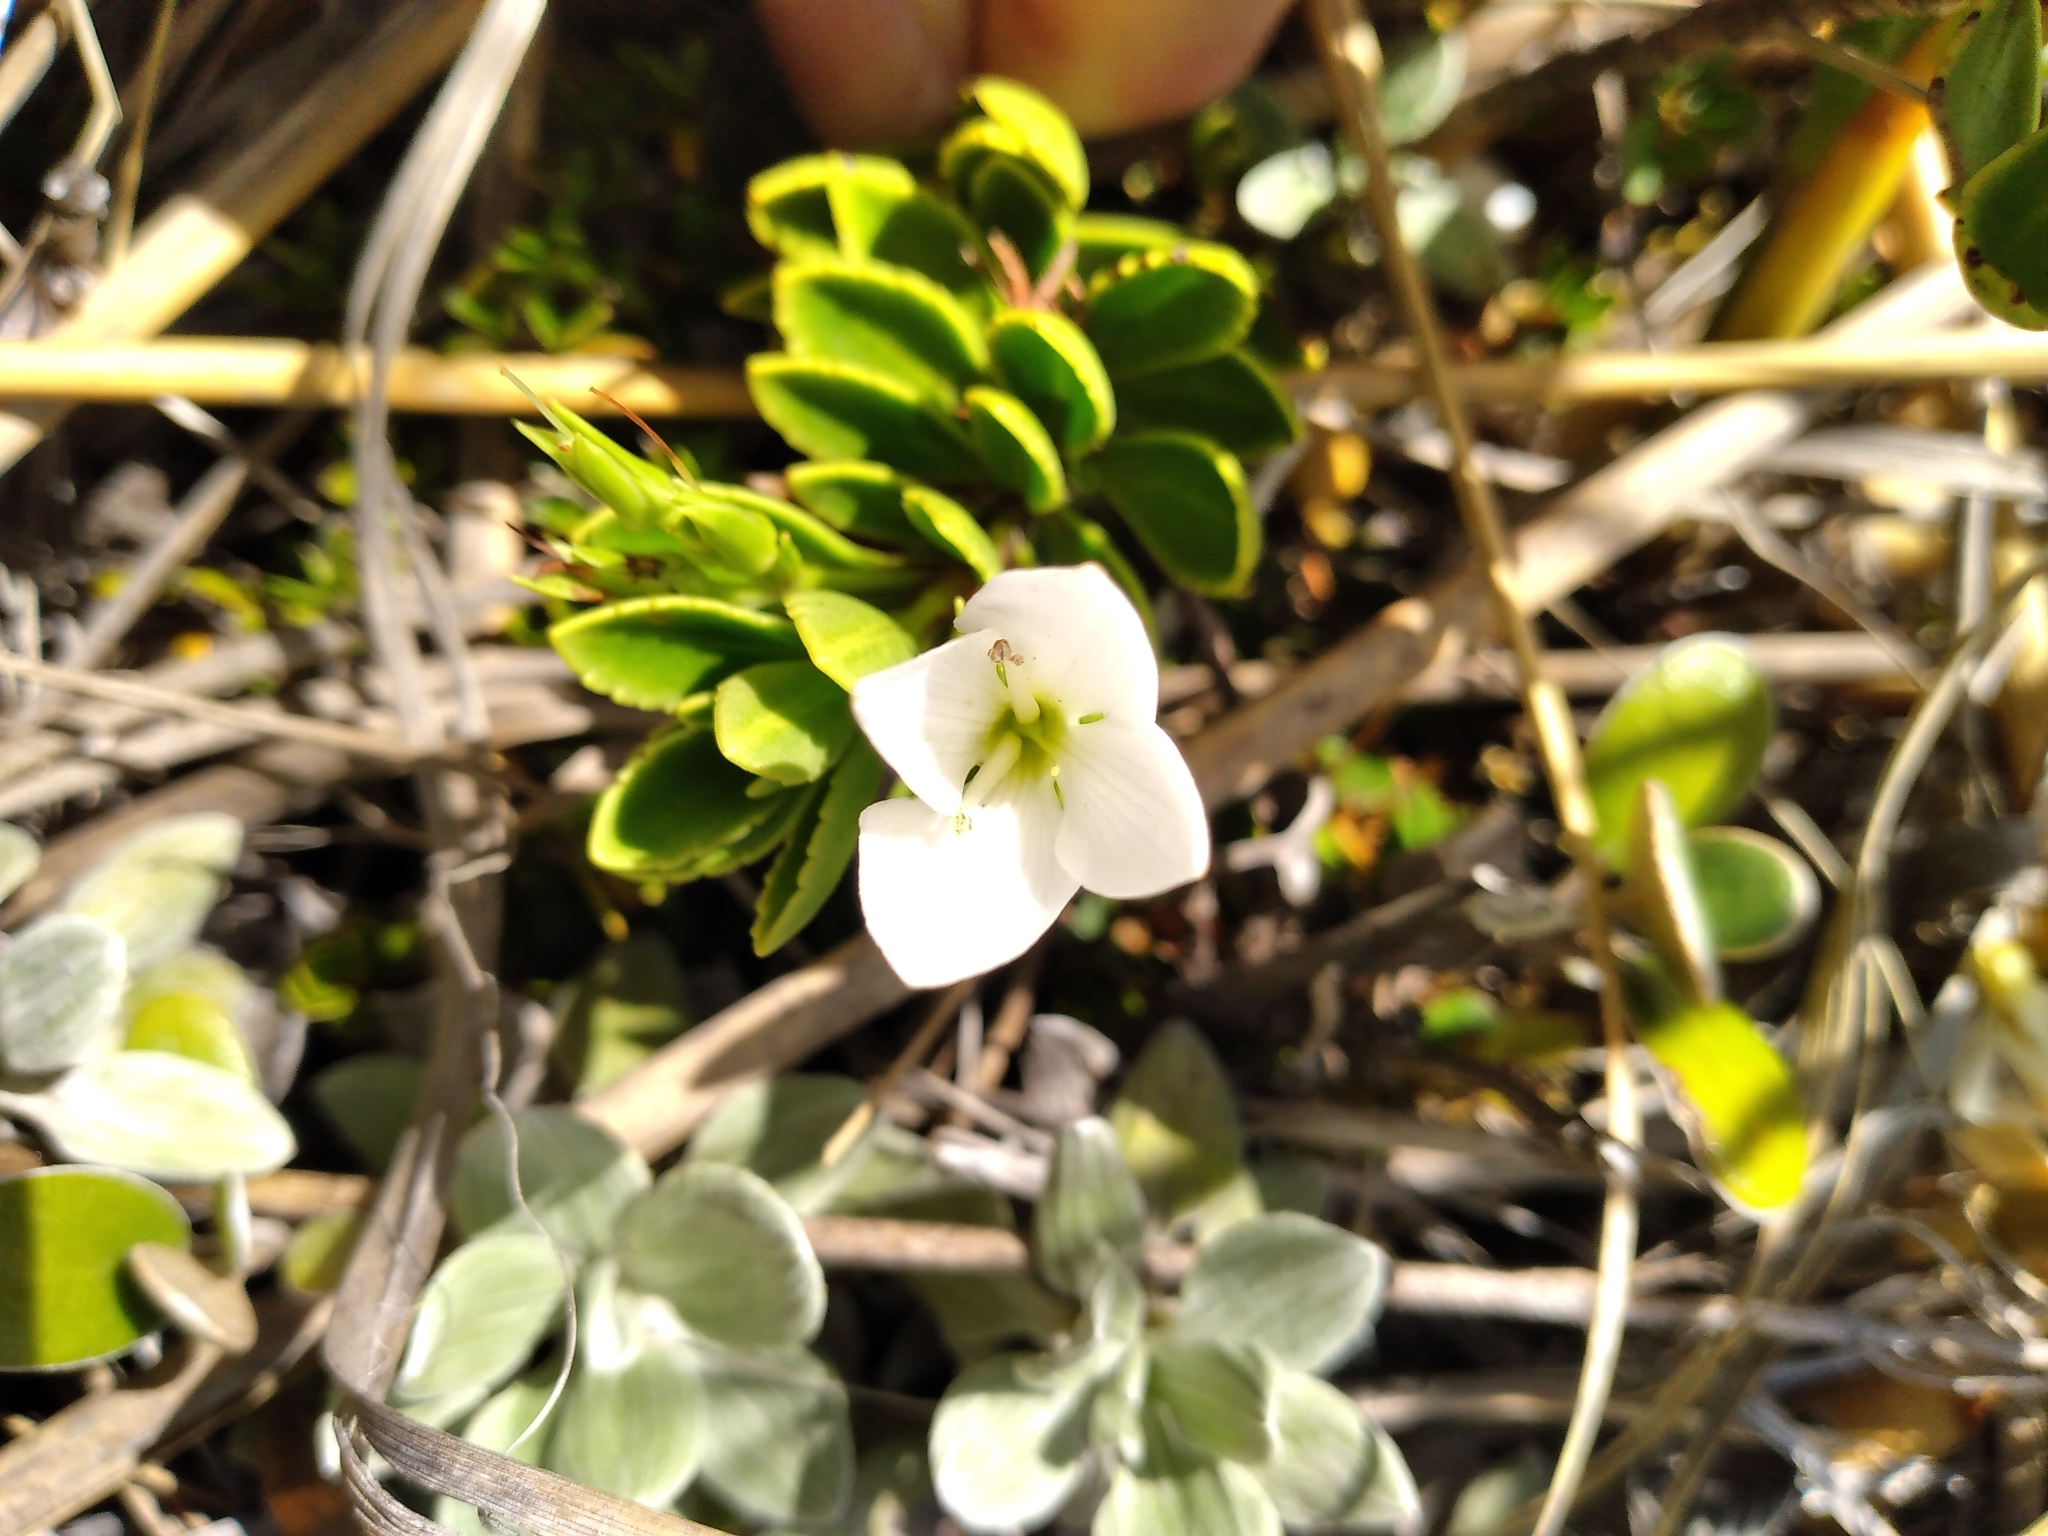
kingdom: Plantae
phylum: Tracheophyta
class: Magnoliopsida
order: Lamiales
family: Plantaginaceae
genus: Veronica
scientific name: Veronica macrantha
